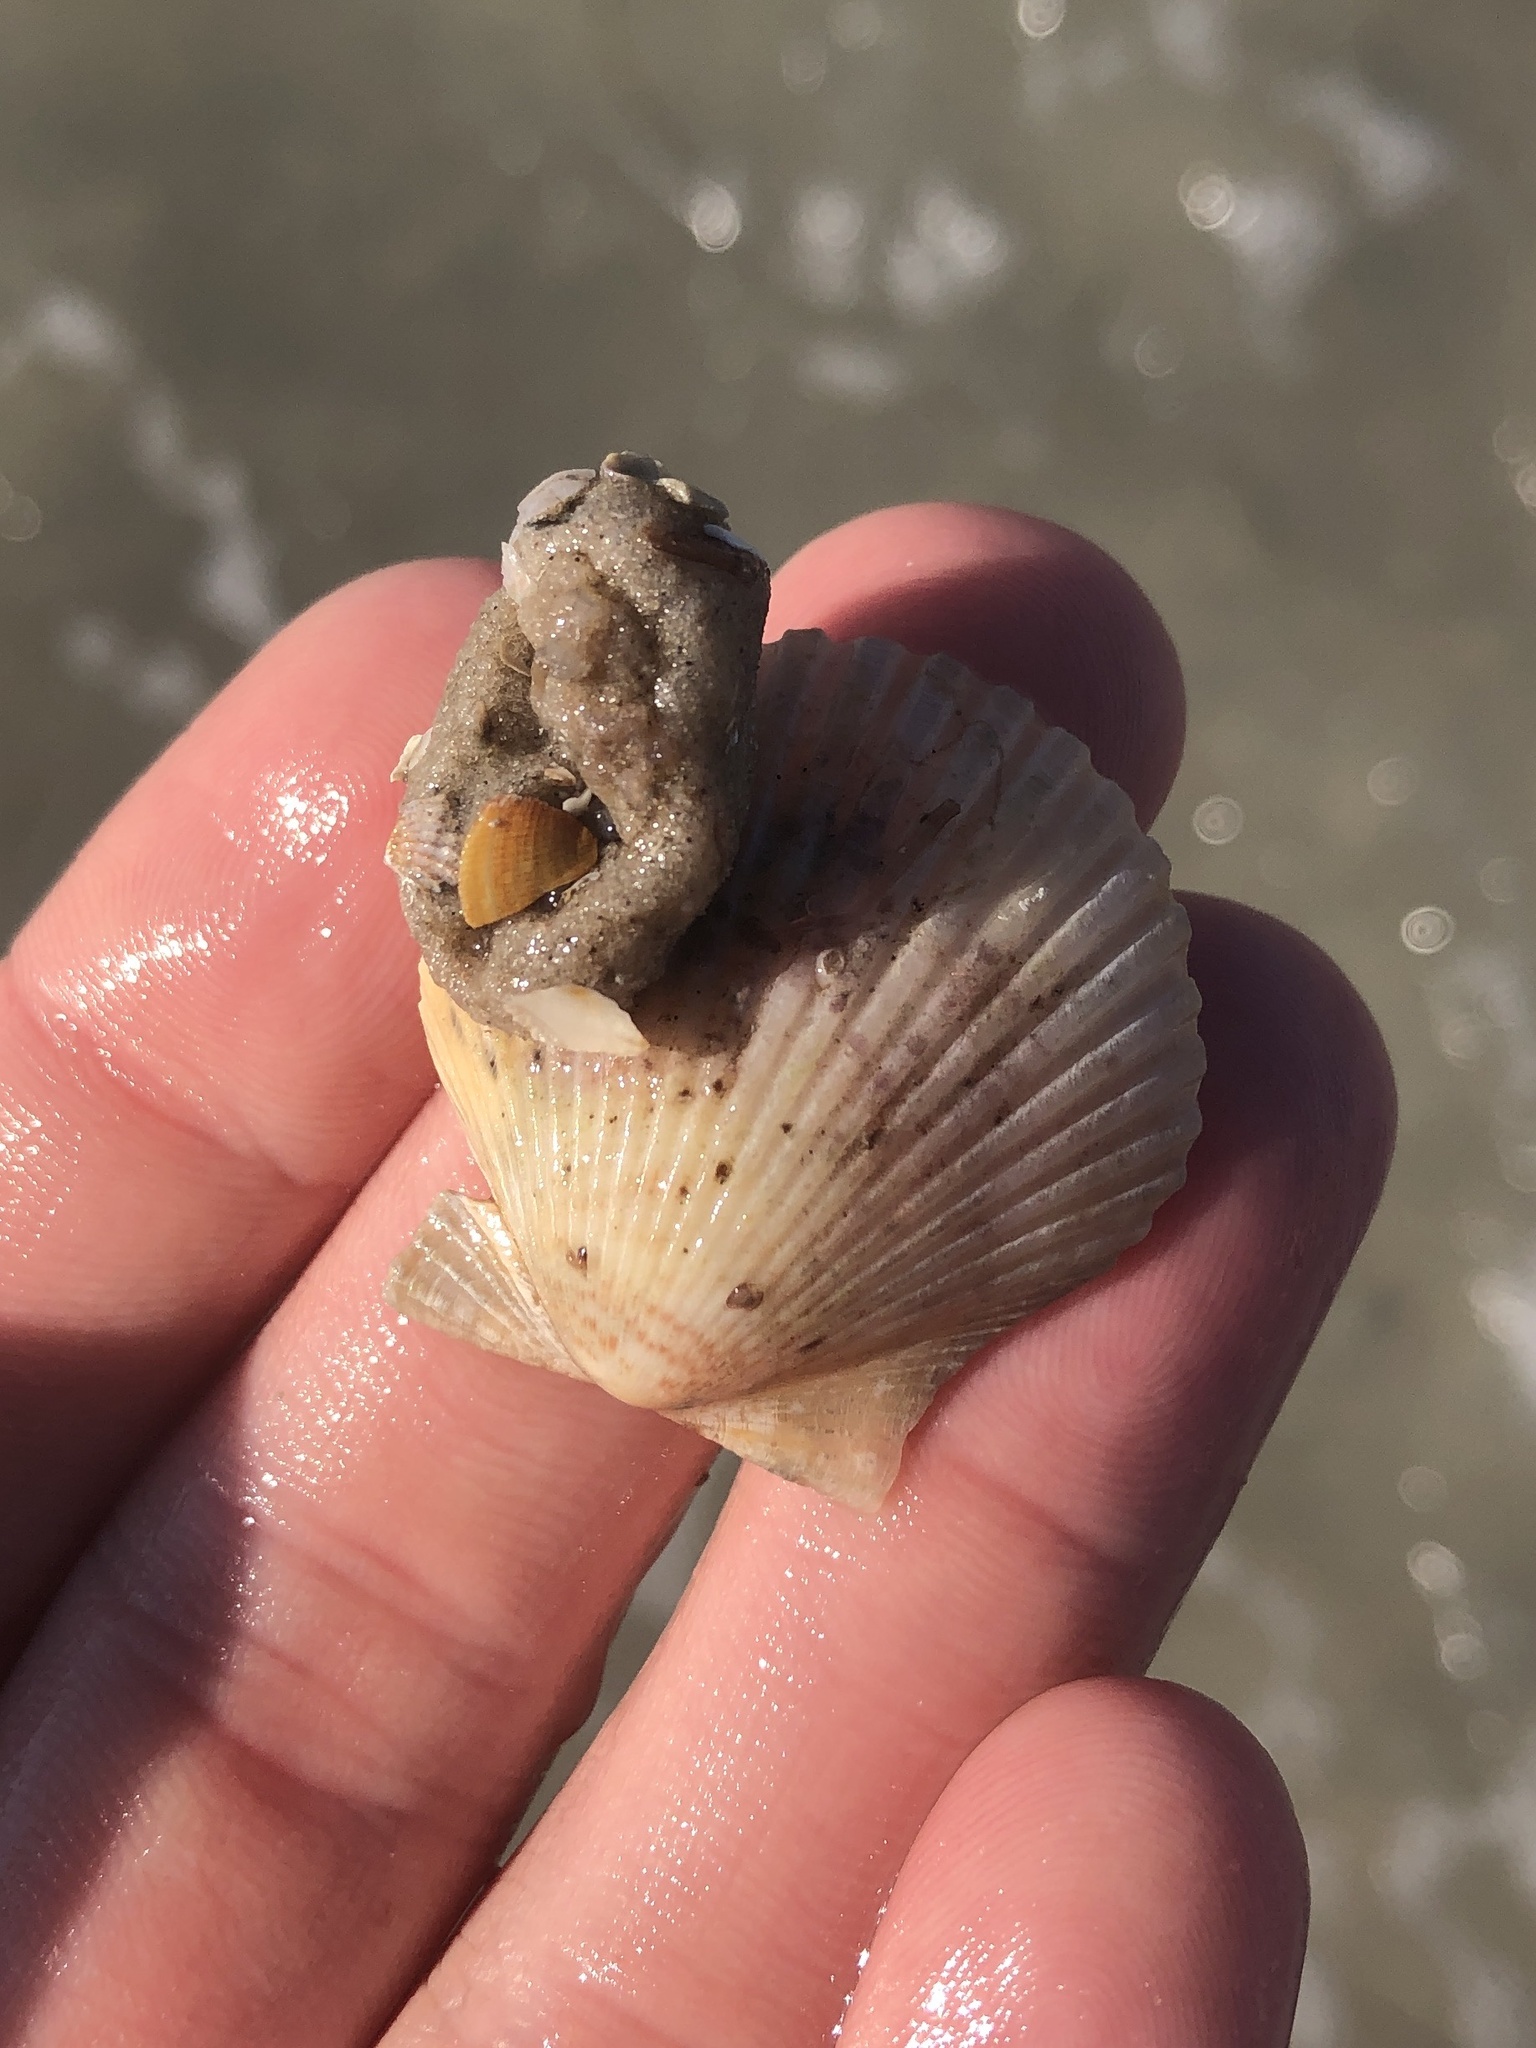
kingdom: Animalia
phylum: Mollusca
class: Bivalvia
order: Pectinida
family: Pectinidae
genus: Argopecten
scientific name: Argopecten gibbus
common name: Atlantic calico scallop
